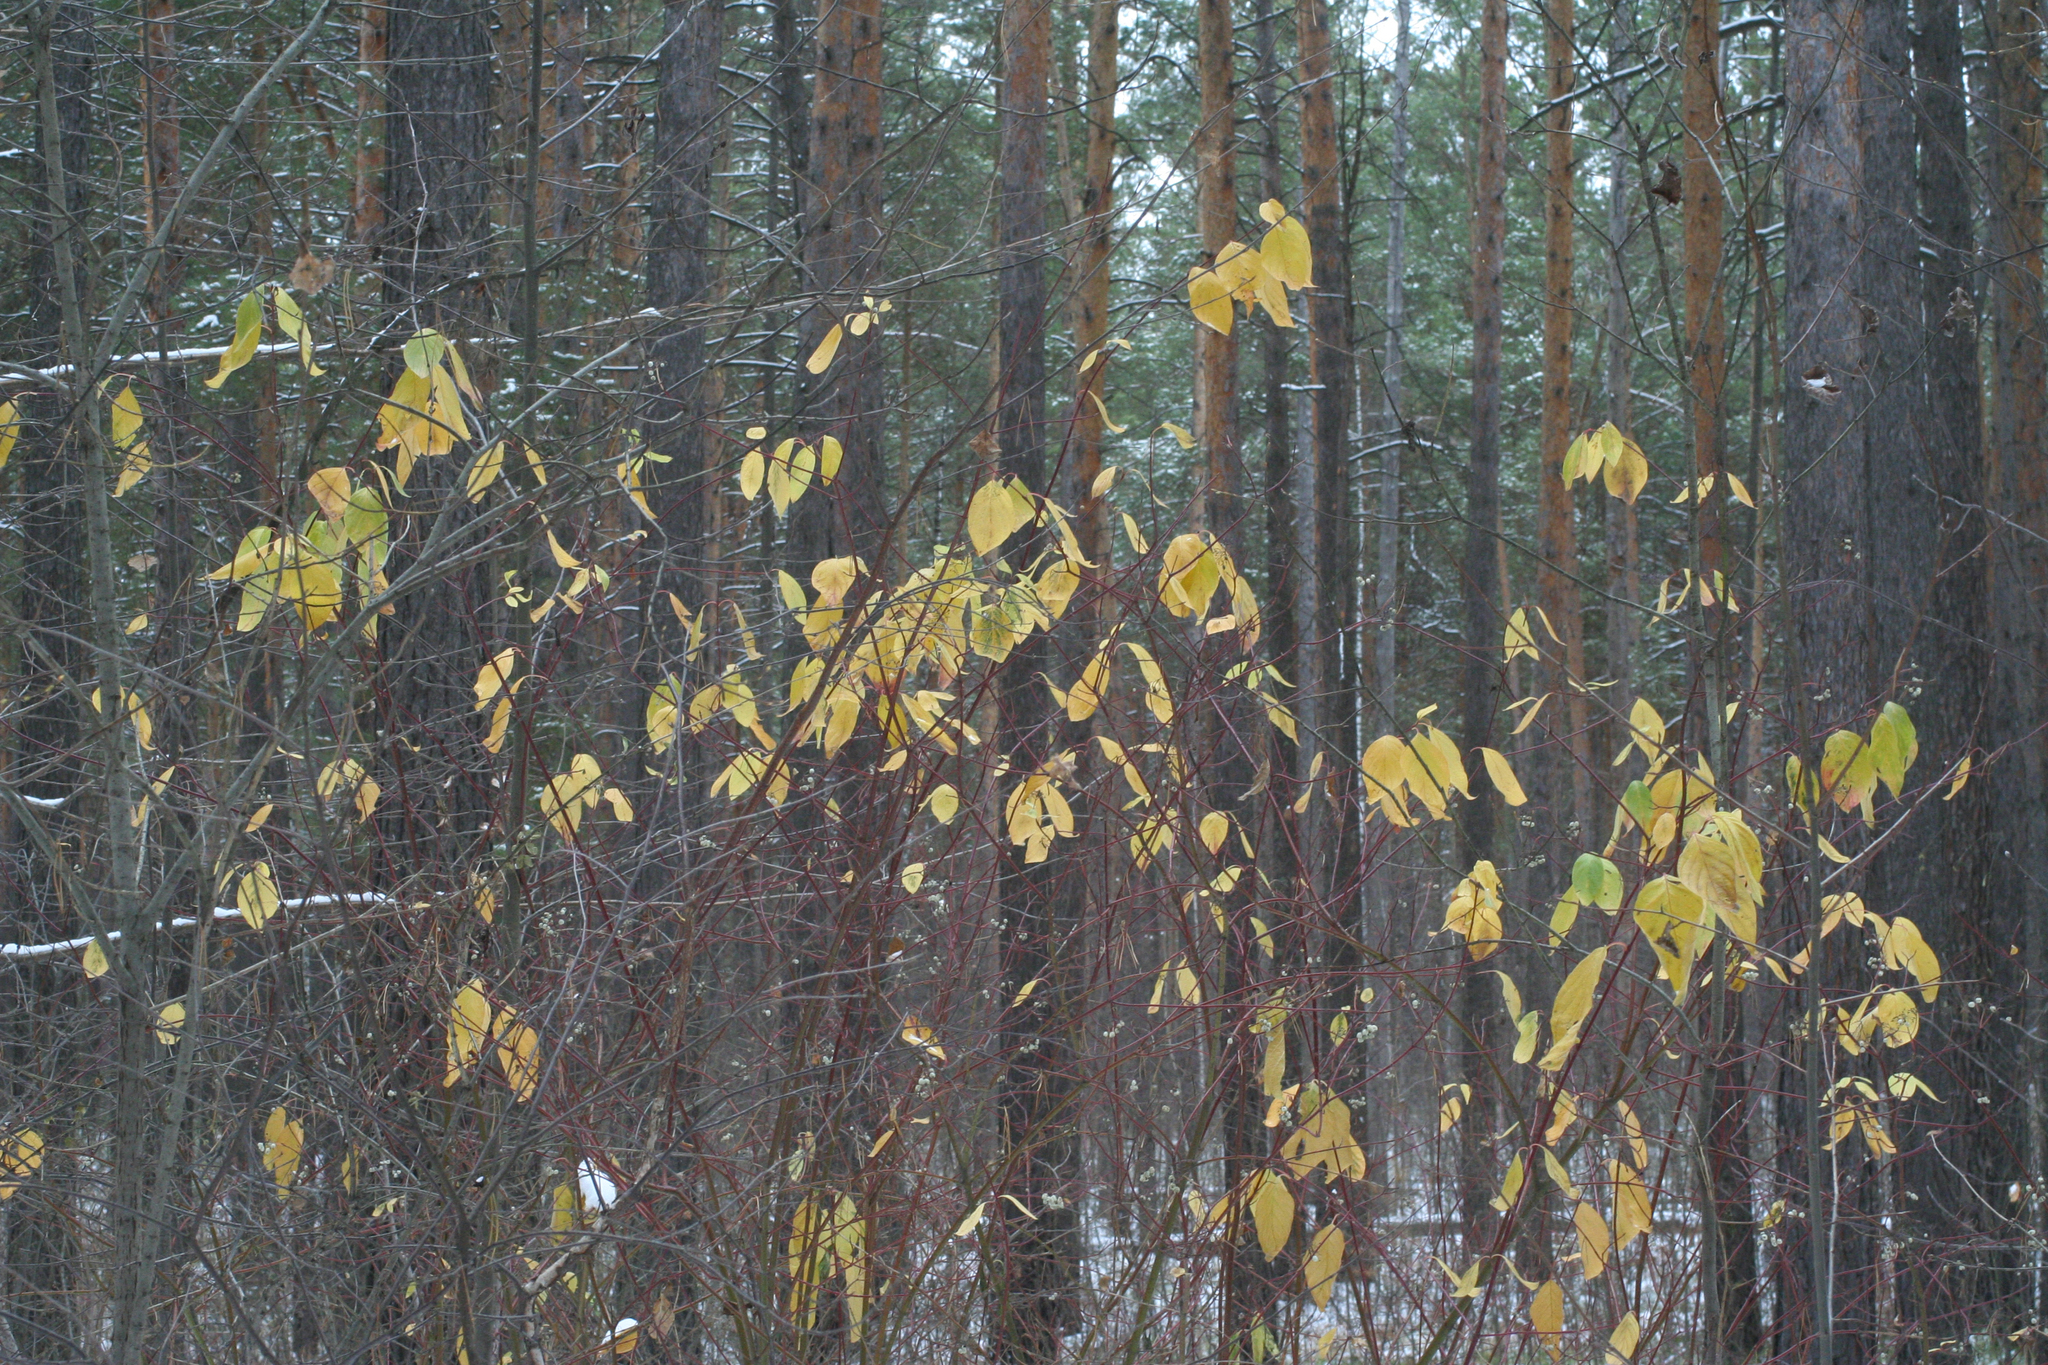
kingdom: Plantae
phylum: Tracheophyta
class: Magnoliopsida
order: Cornales
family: Cornaceae
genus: Cornus
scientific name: Cornus alba
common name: White dogwood
